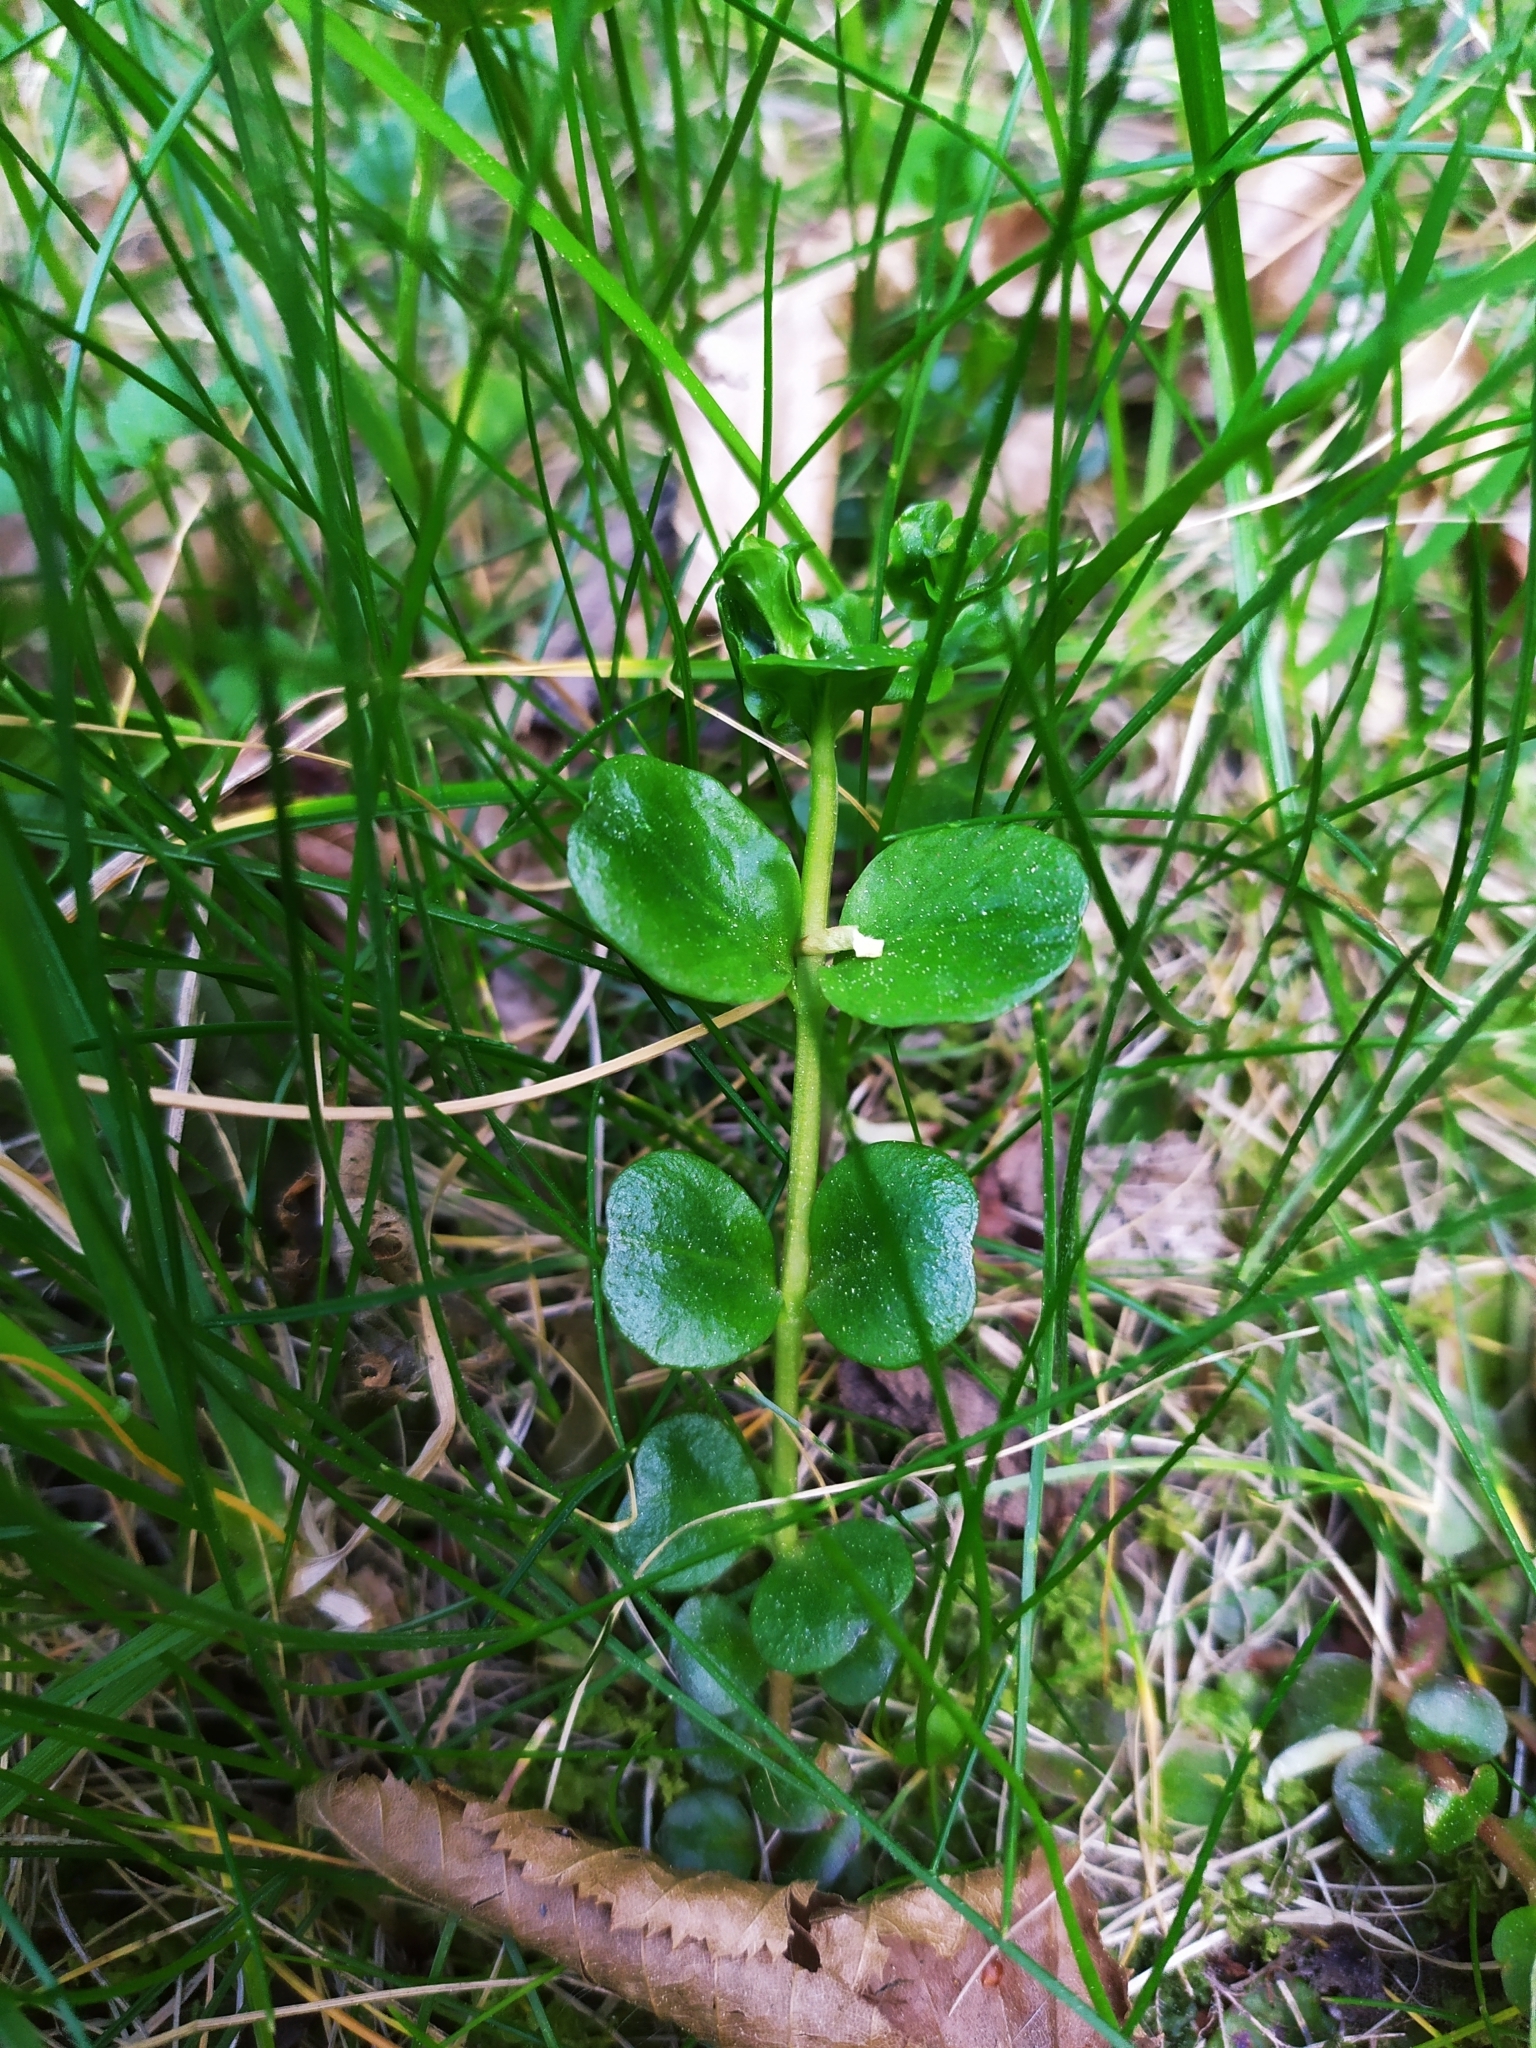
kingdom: Plantae
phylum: Tracheophyta
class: Magnoliopsida
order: Ericales
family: Primulaceae
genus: Lysimachia
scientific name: Lysimachia nummularia
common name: Moneywort
